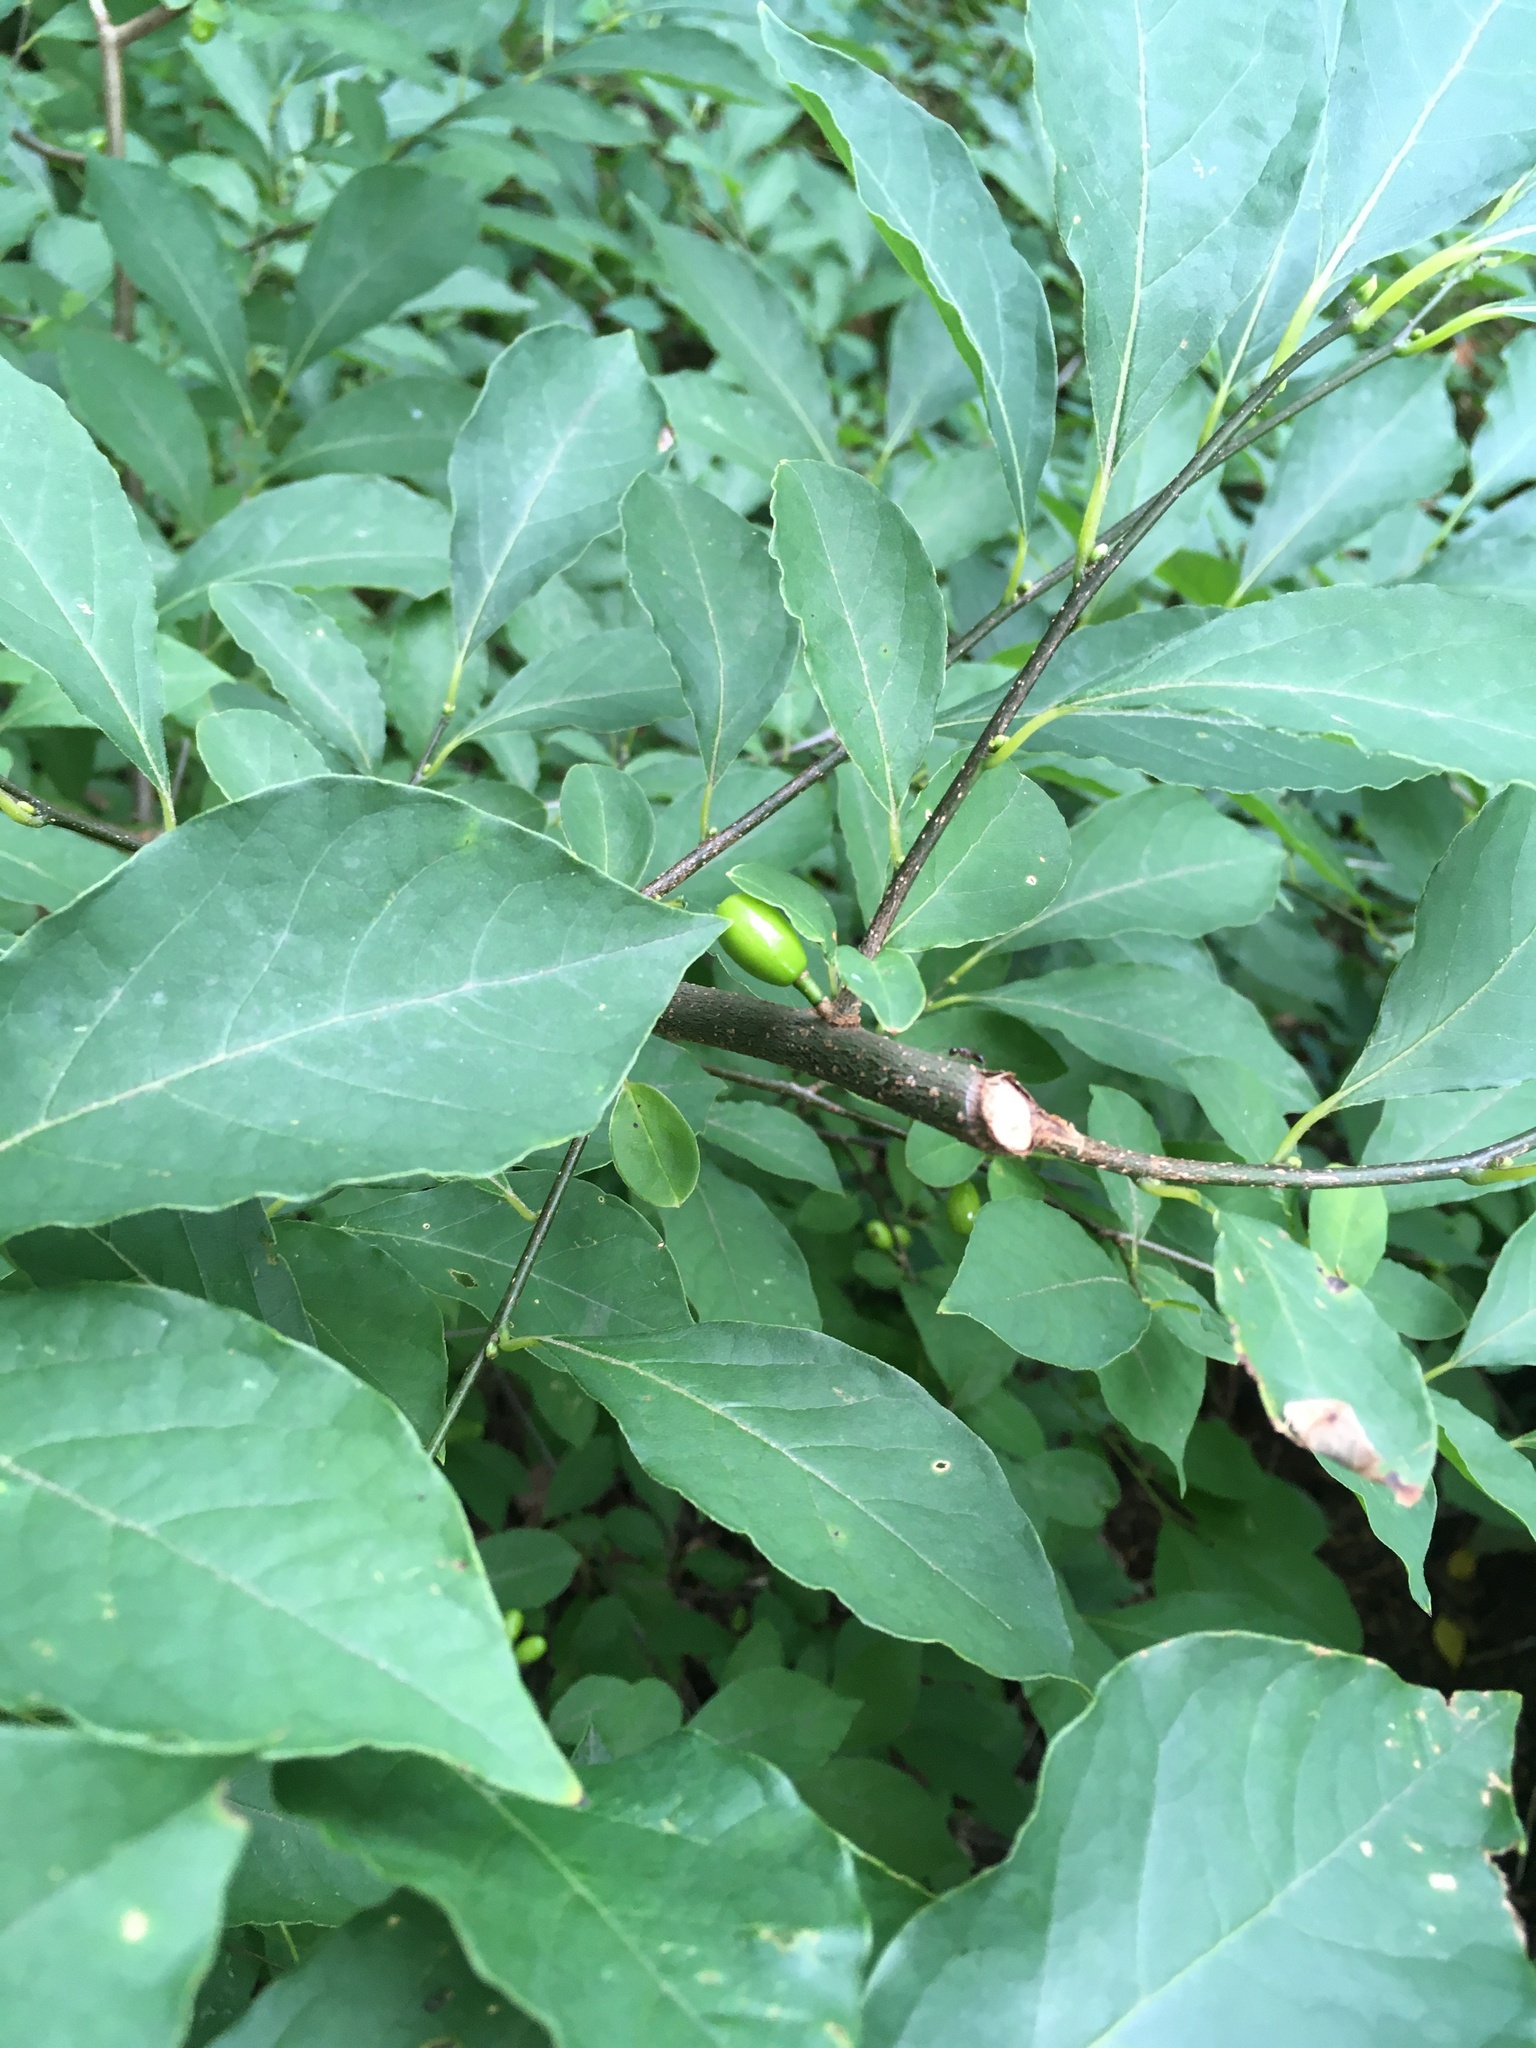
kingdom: Plantae
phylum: Tracheophyta
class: Magnoliopsida
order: Laurales
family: Lauraceae
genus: Lindera
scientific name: Lindera benzoin
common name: Spicebush
